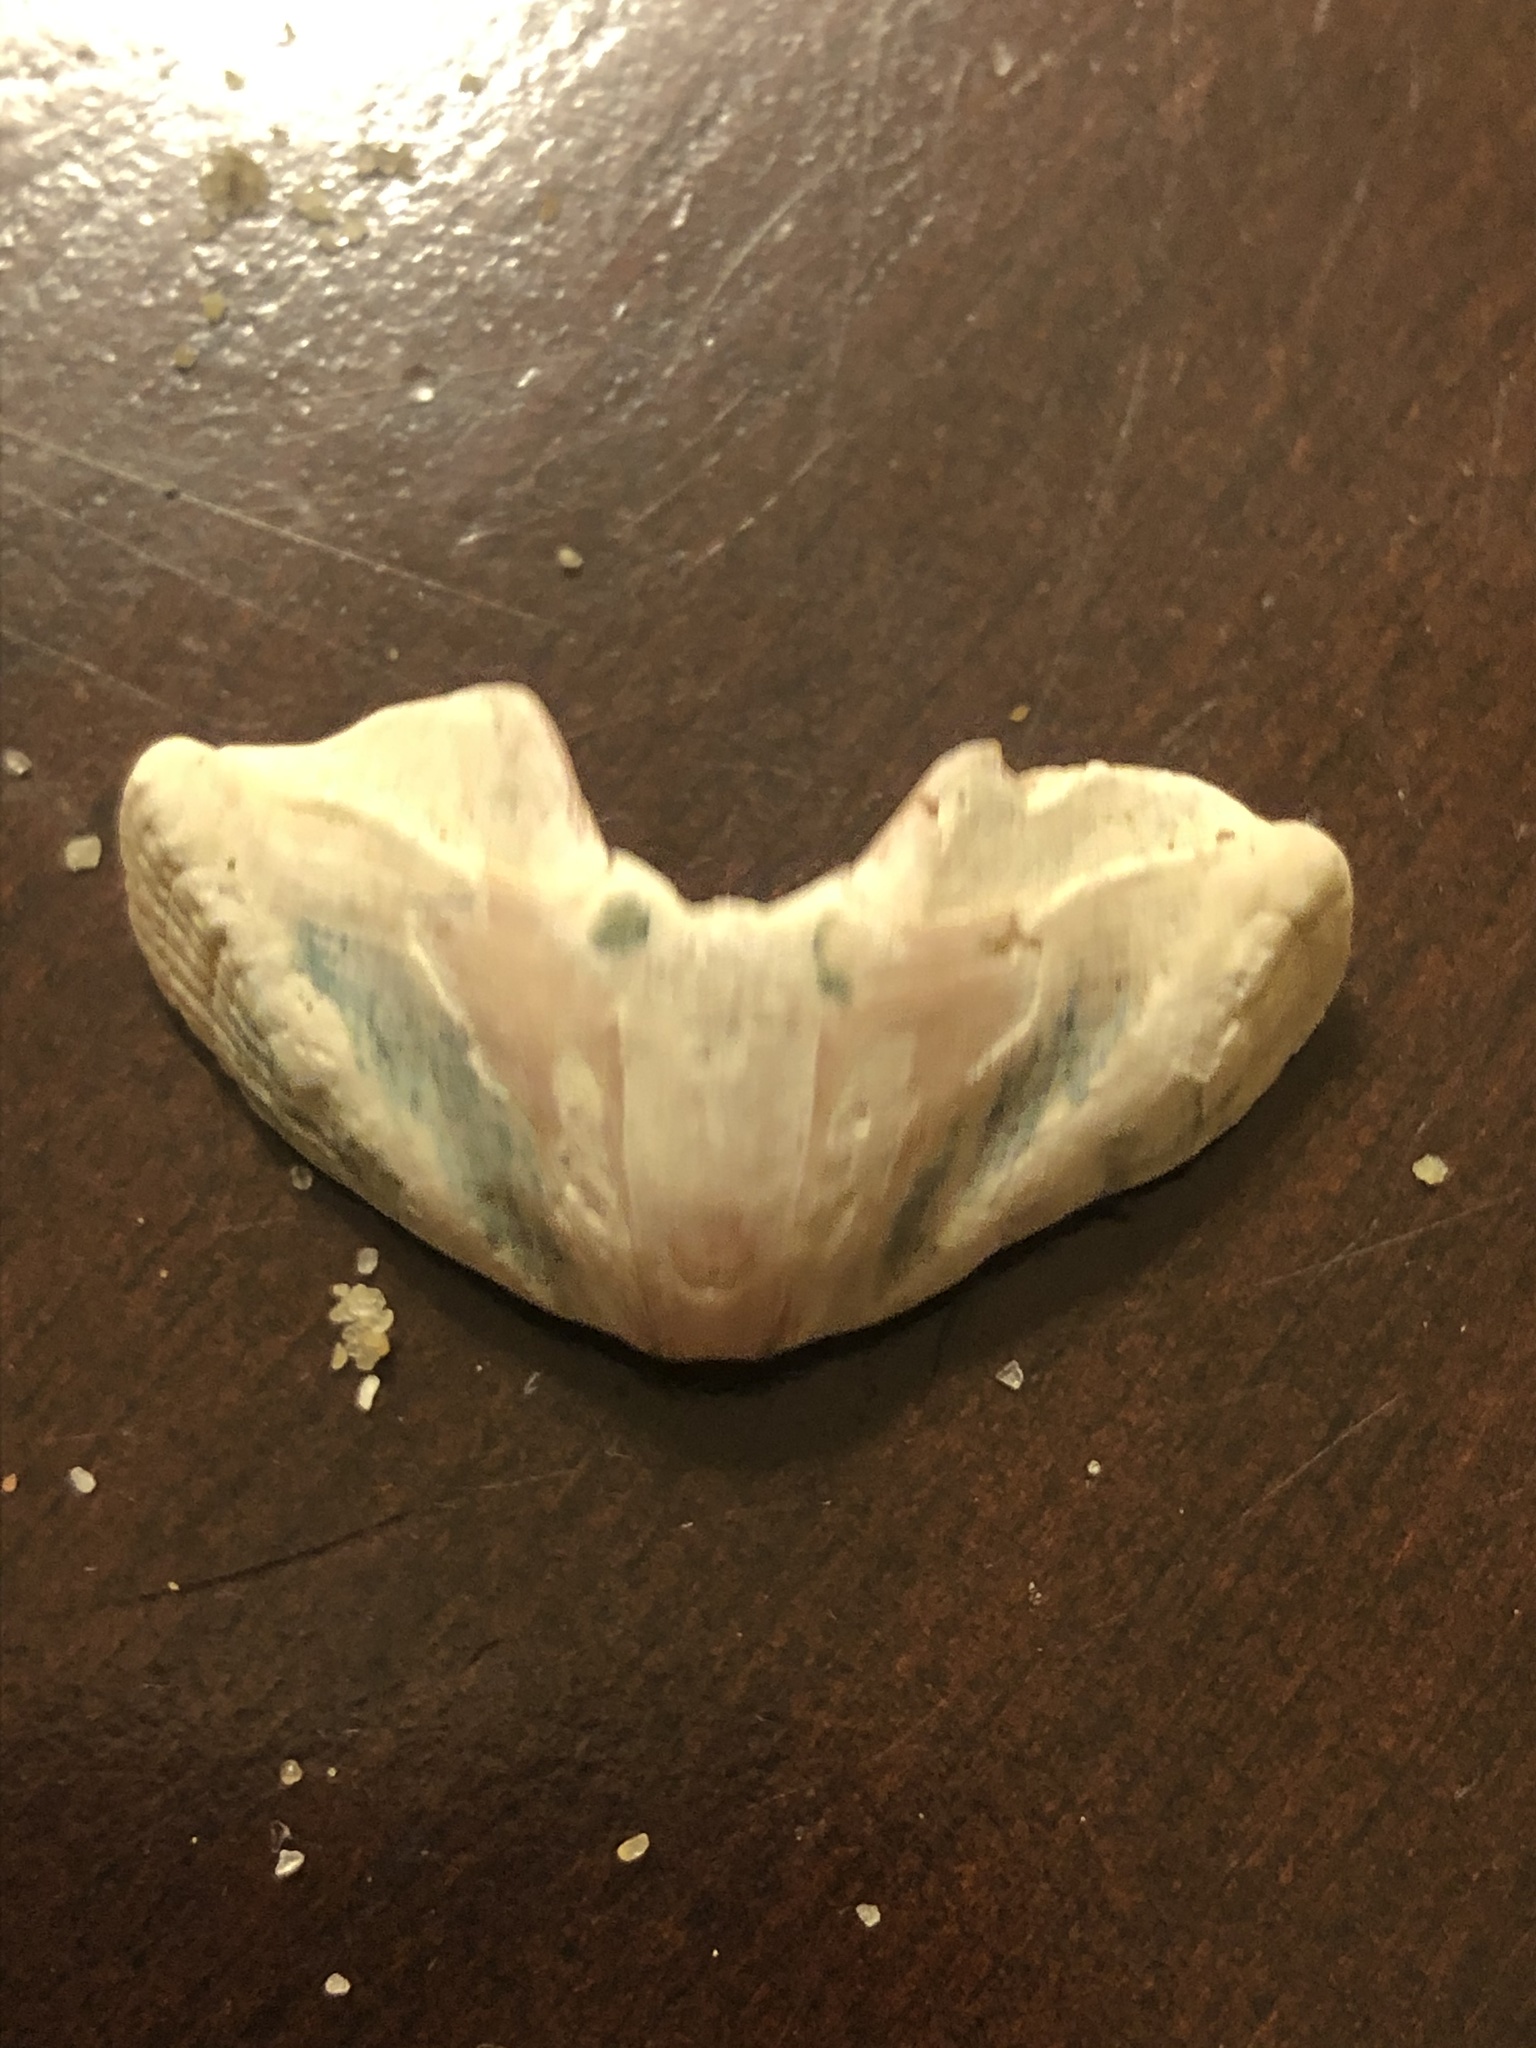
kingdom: Animalia
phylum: Mollusca
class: Polyplacophora
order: Chitonida
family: Ischnochitonidae
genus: Stenoplax
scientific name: Stenoplax conspicua
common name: Conspicuous chiton
